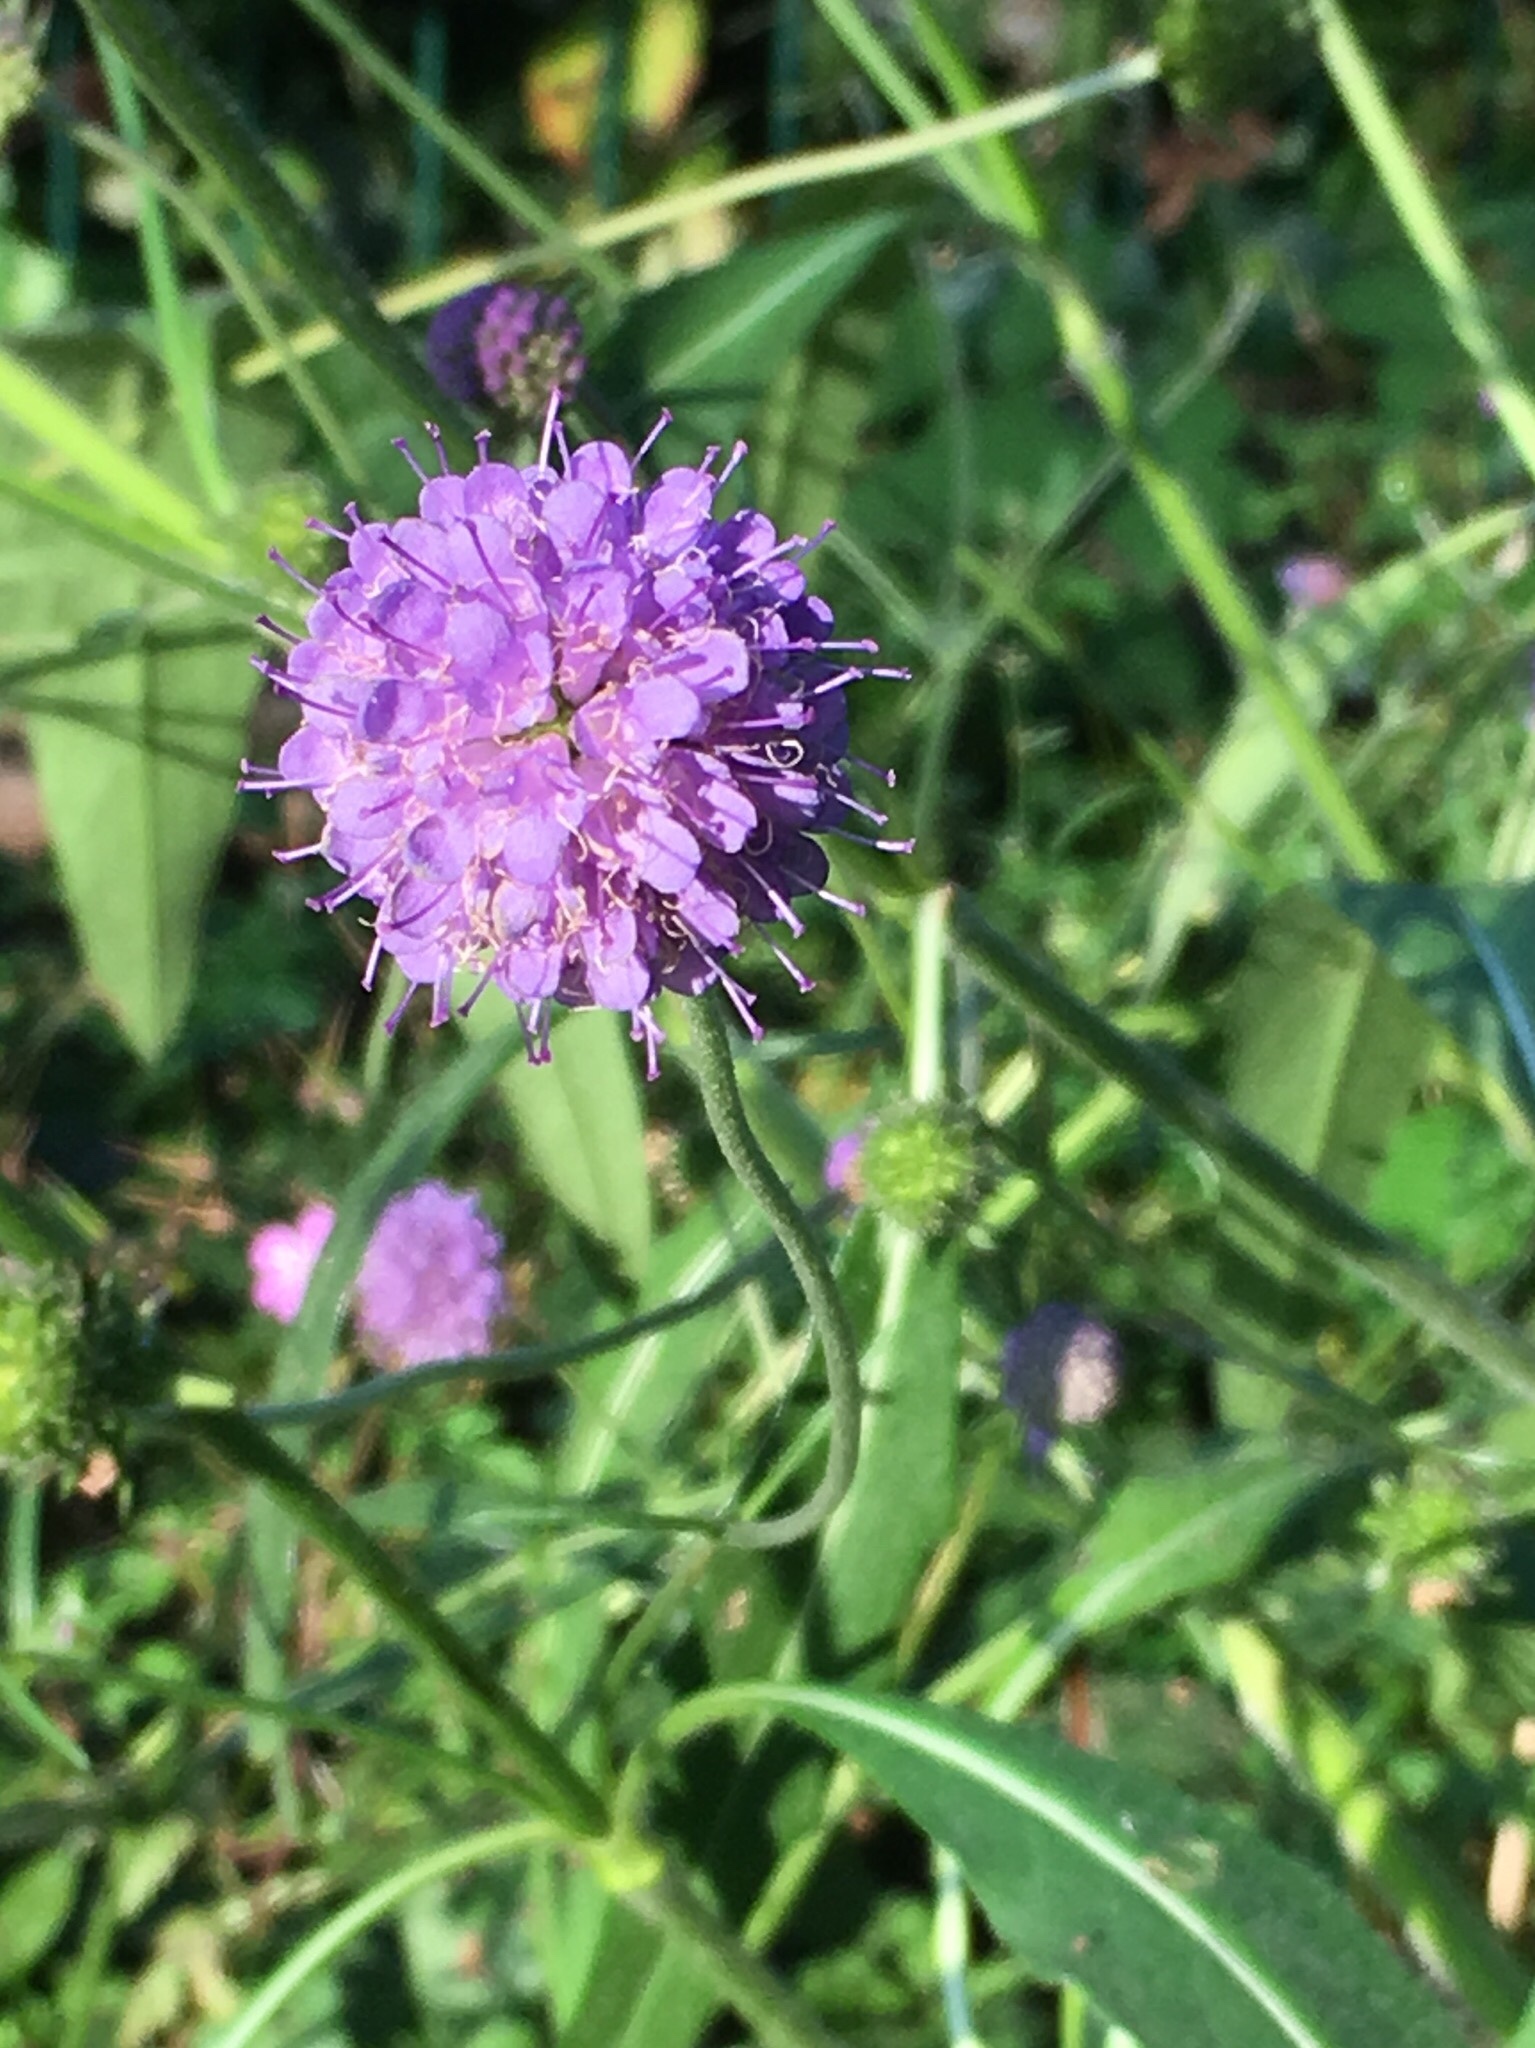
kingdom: Plantae
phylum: Tracheophyta
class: Magnoliopsida
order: Dipsacales
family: Caprifoliaceae
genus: Succisa
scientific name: Succisa pratensis
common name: Devil's-bit
